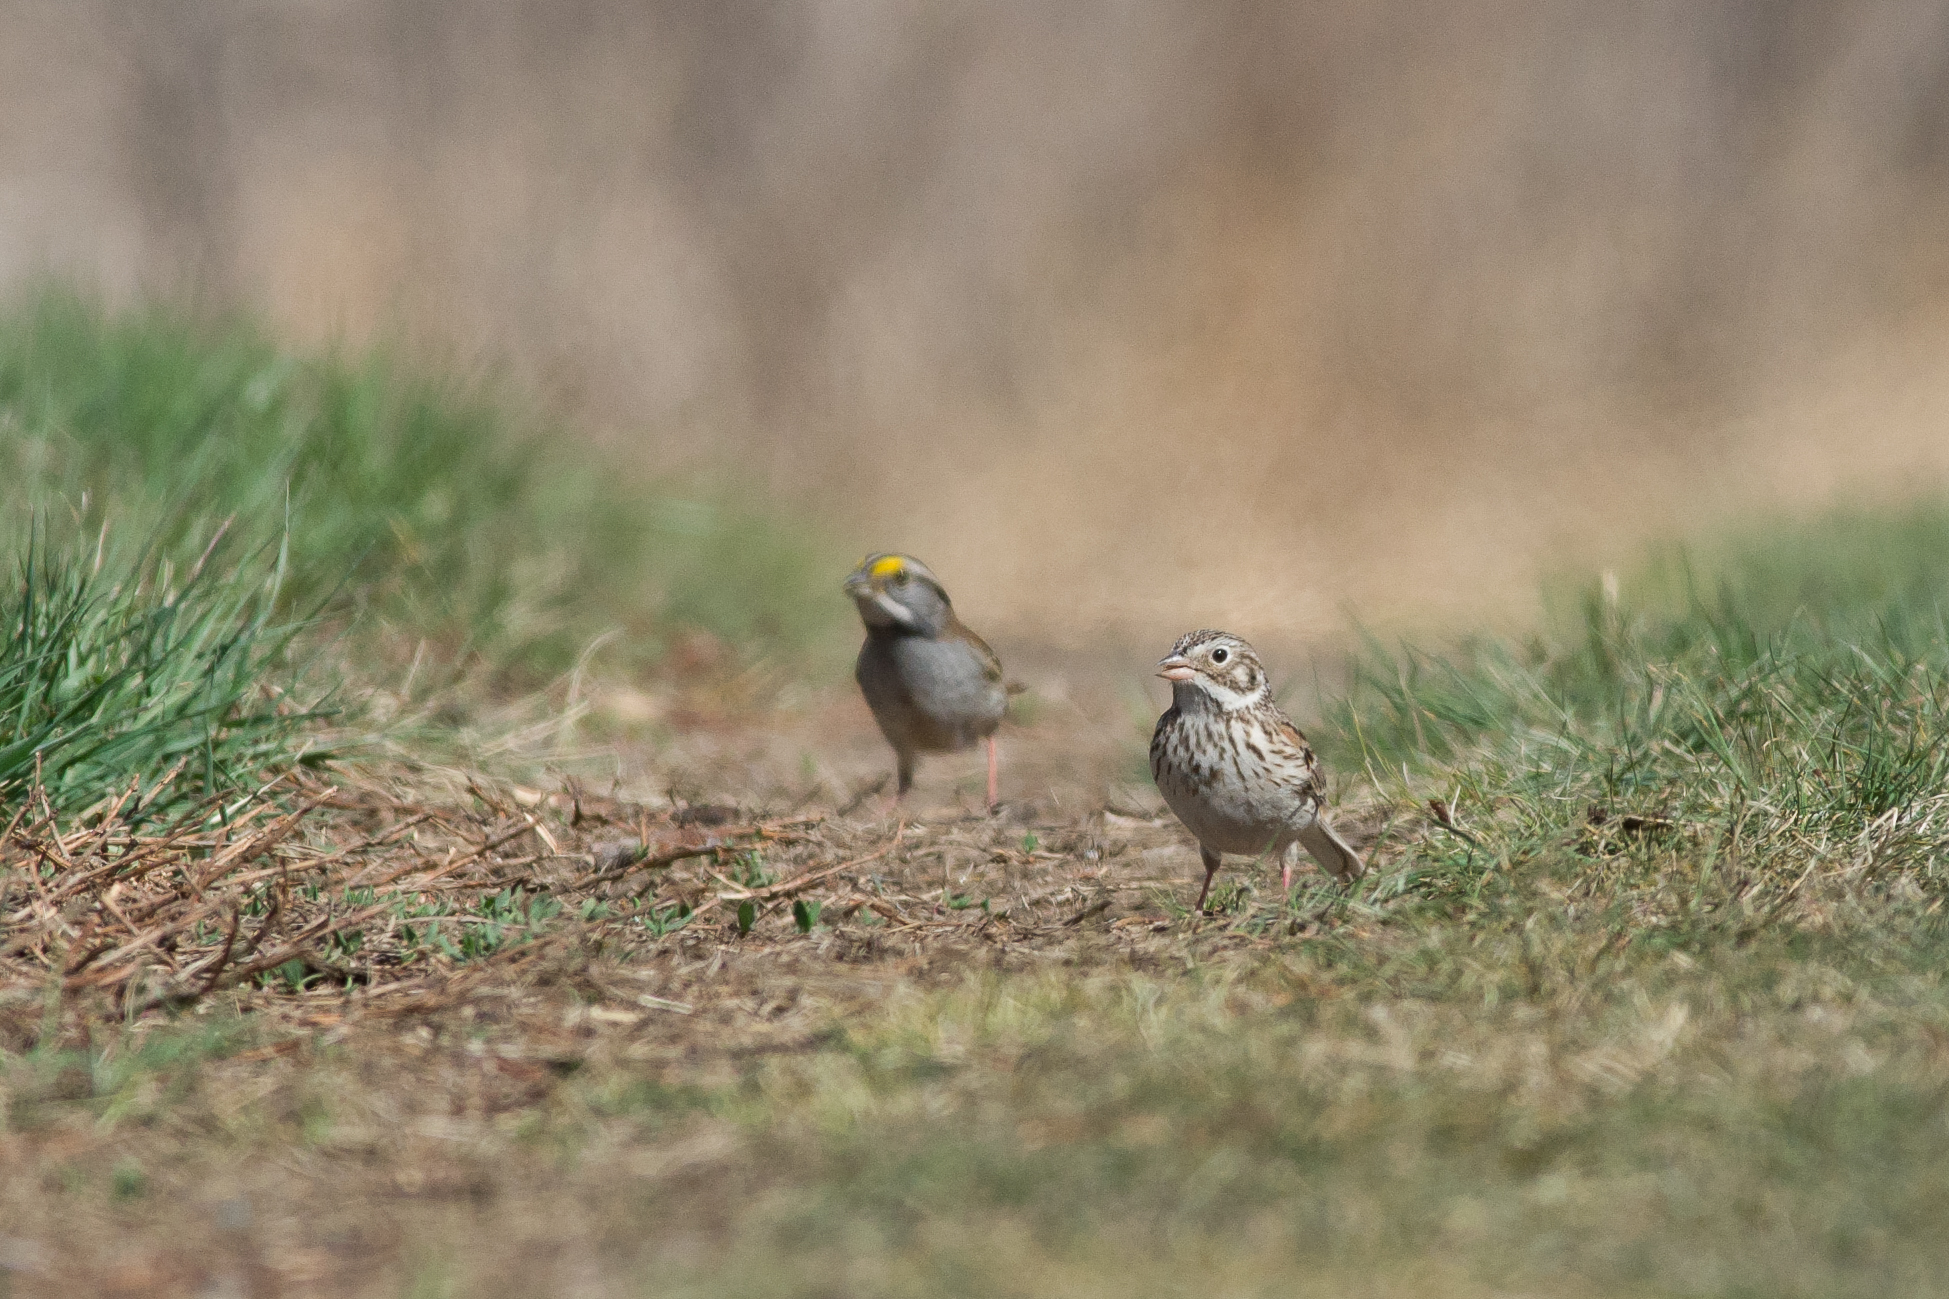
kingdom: Animalia
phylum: Chordata
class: Aves
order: Passeriformes
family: Passerellidae
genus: Pooecetes
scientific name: Pooecetes gramineus
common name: Vesper sparrow
